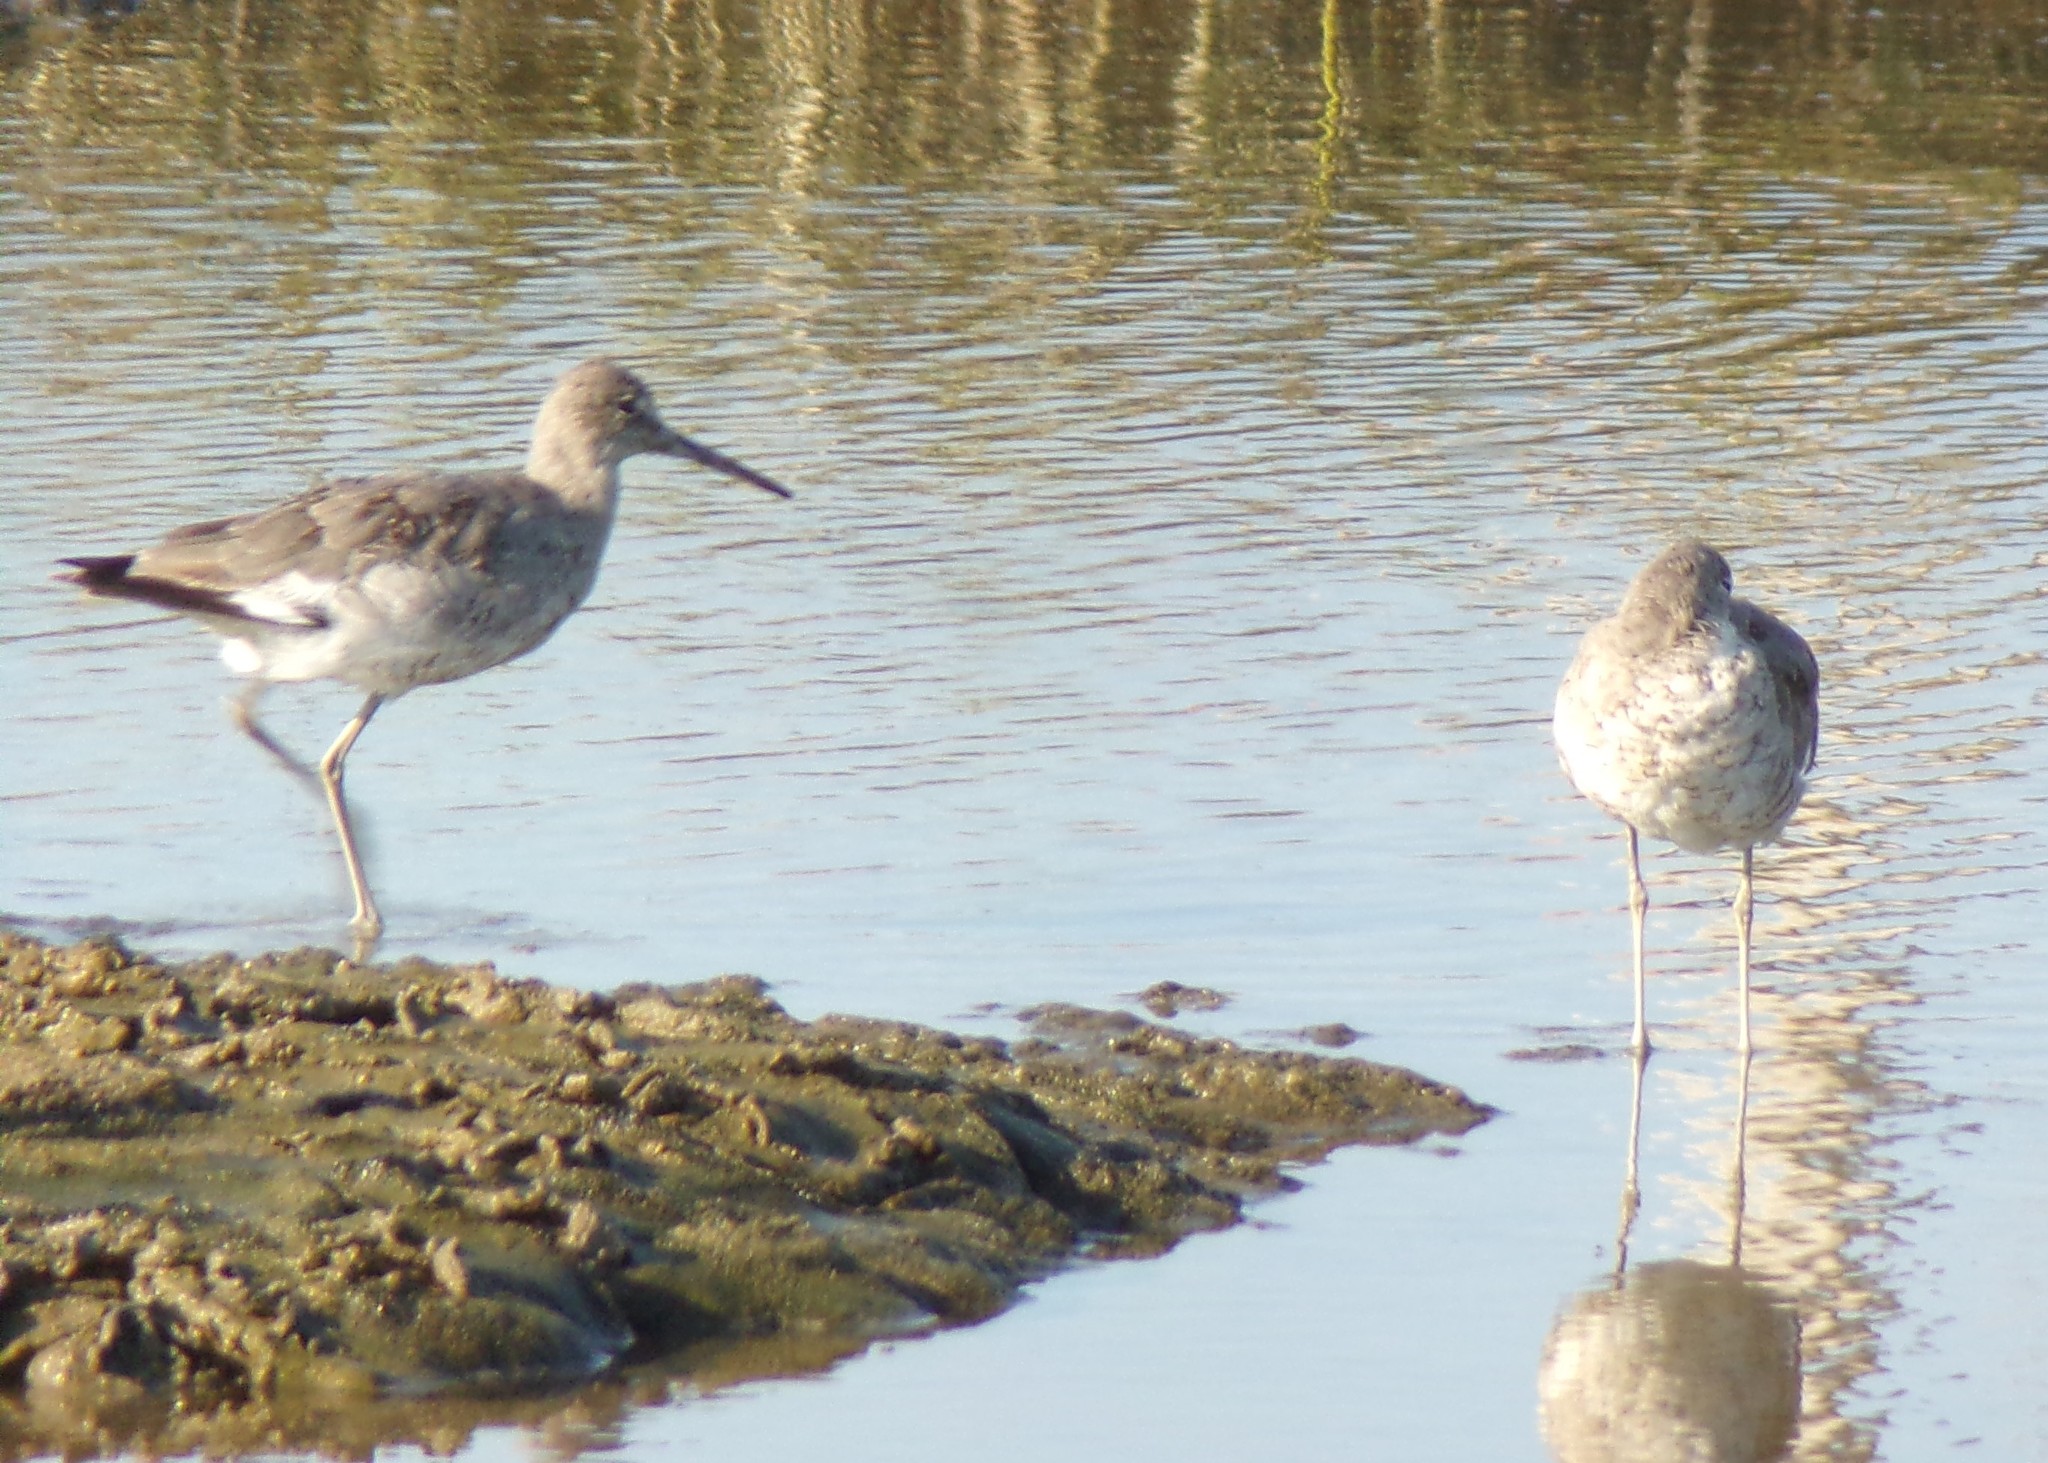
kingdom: Animalia
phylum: Chordata
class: Aves
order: Charadriiformes
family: Scolopacidae
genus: Tringa
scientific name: Tringa semipalmata
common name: Willet
